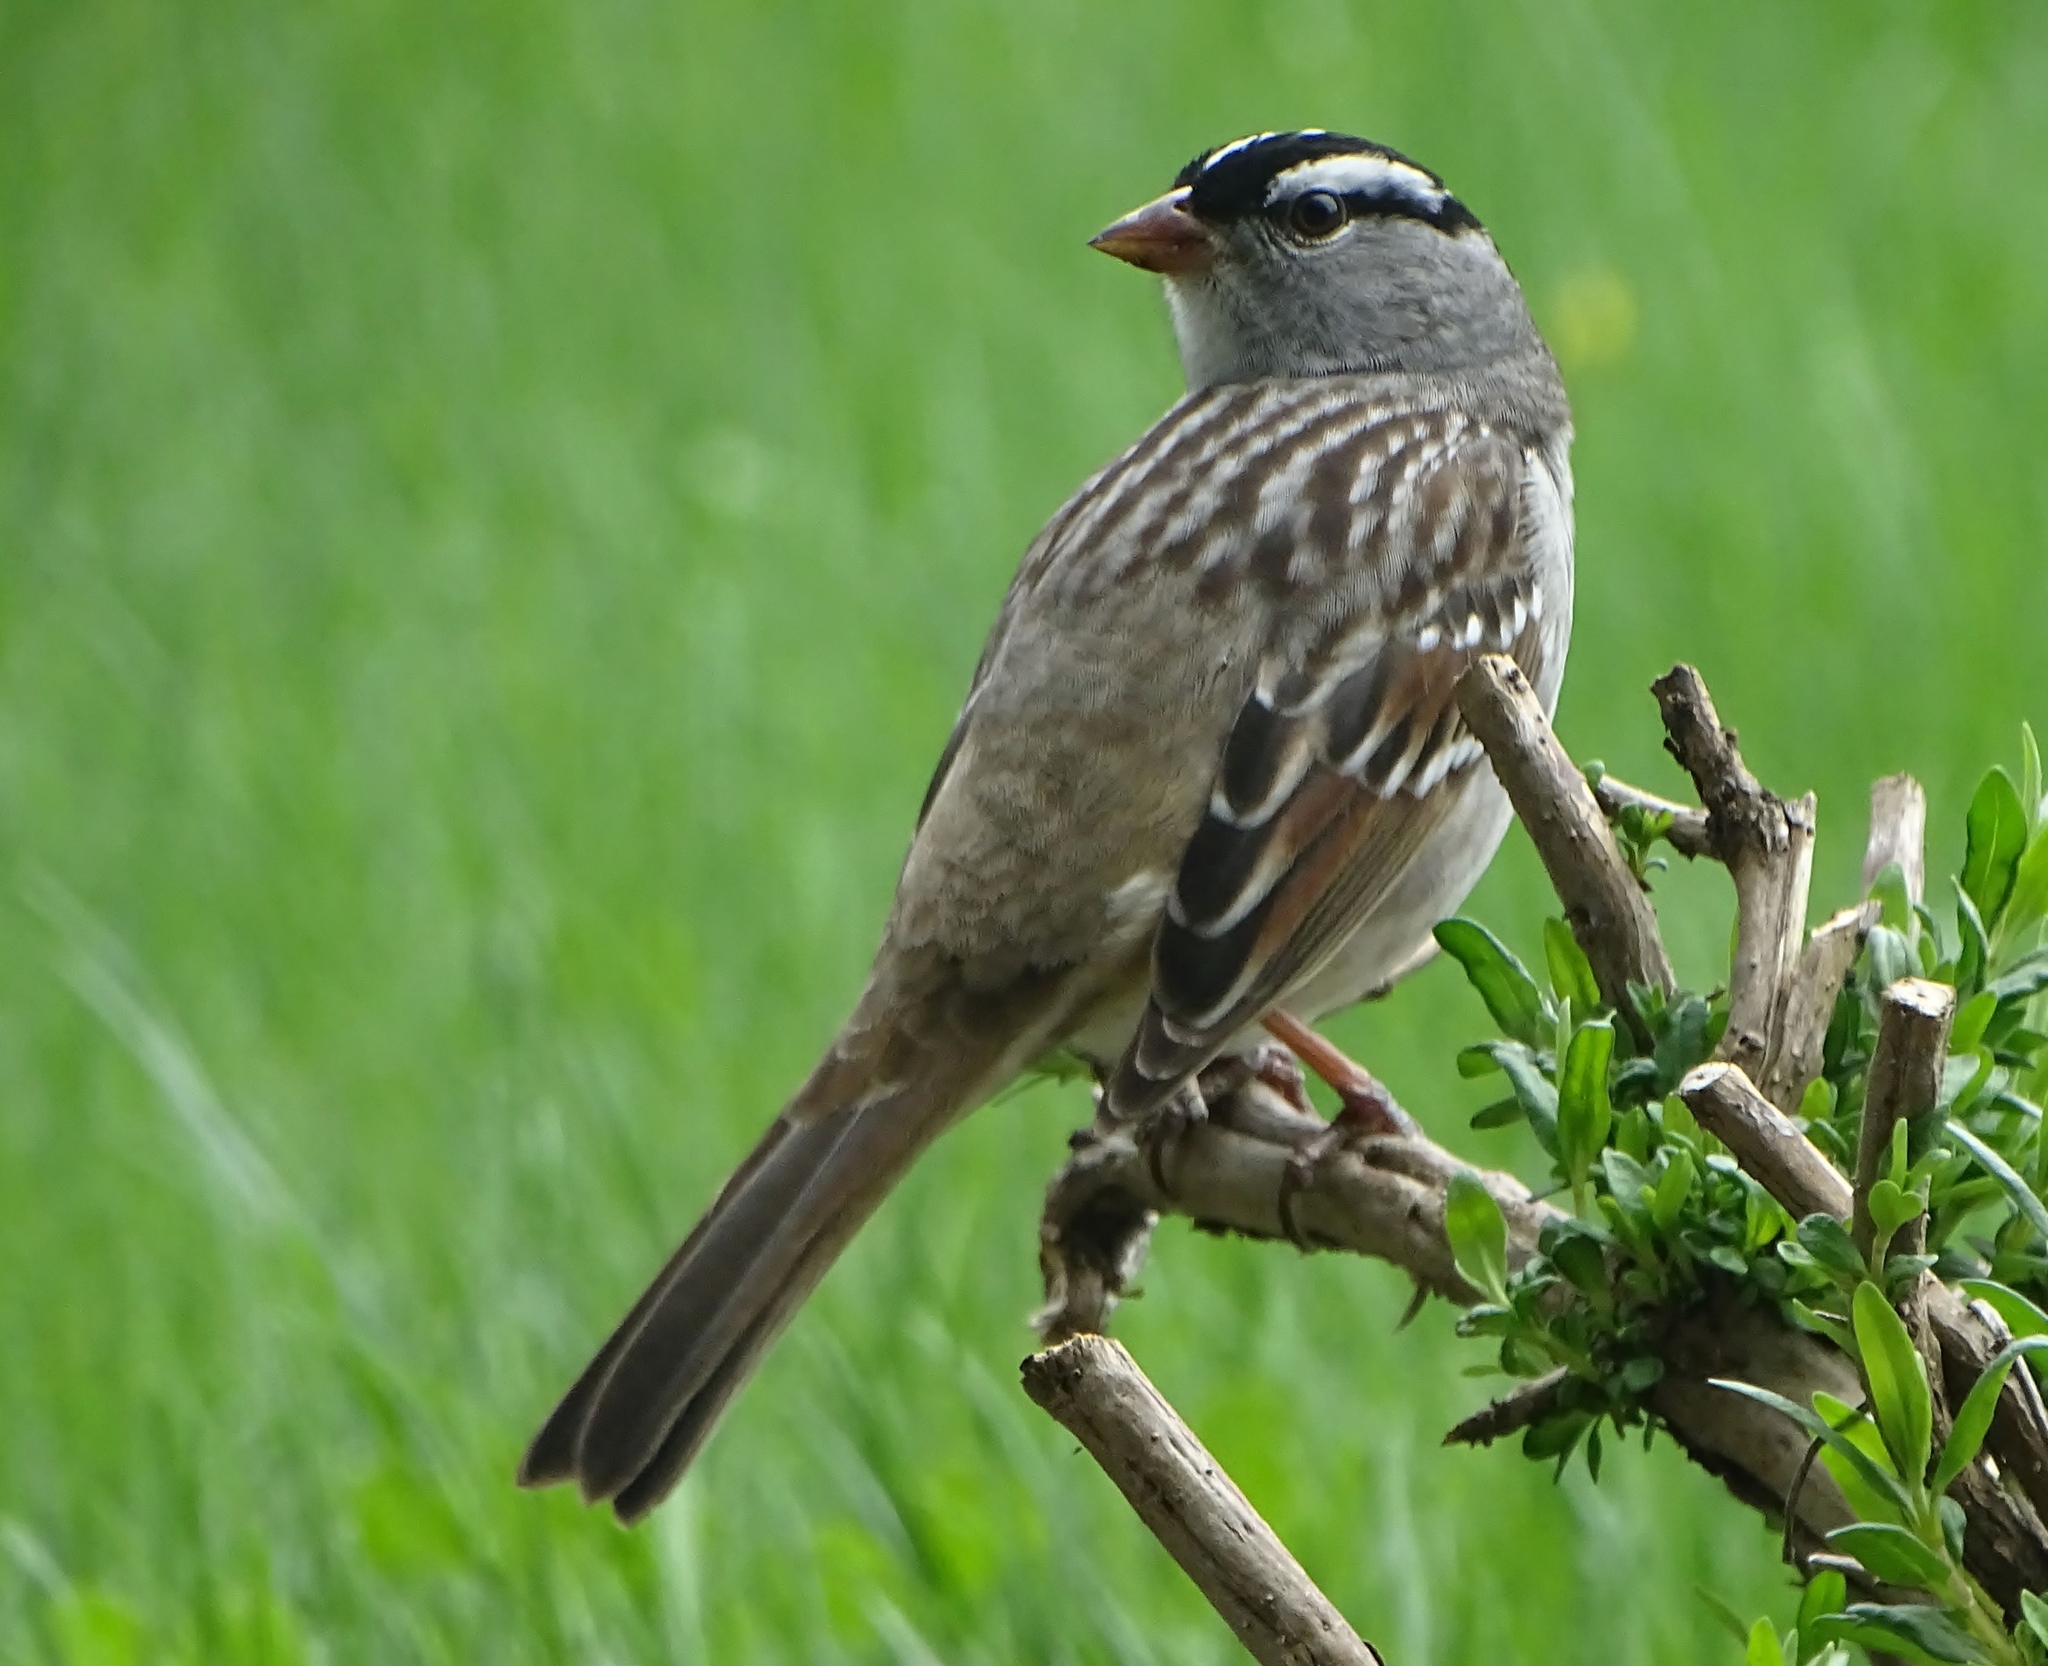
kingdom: Animalia
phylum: Chordata
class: Aves
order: Passeriformes
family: Passerellidae
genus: Zonotrichia
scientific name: Zonotrichia leucophrys
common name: White-crowned sparrow
